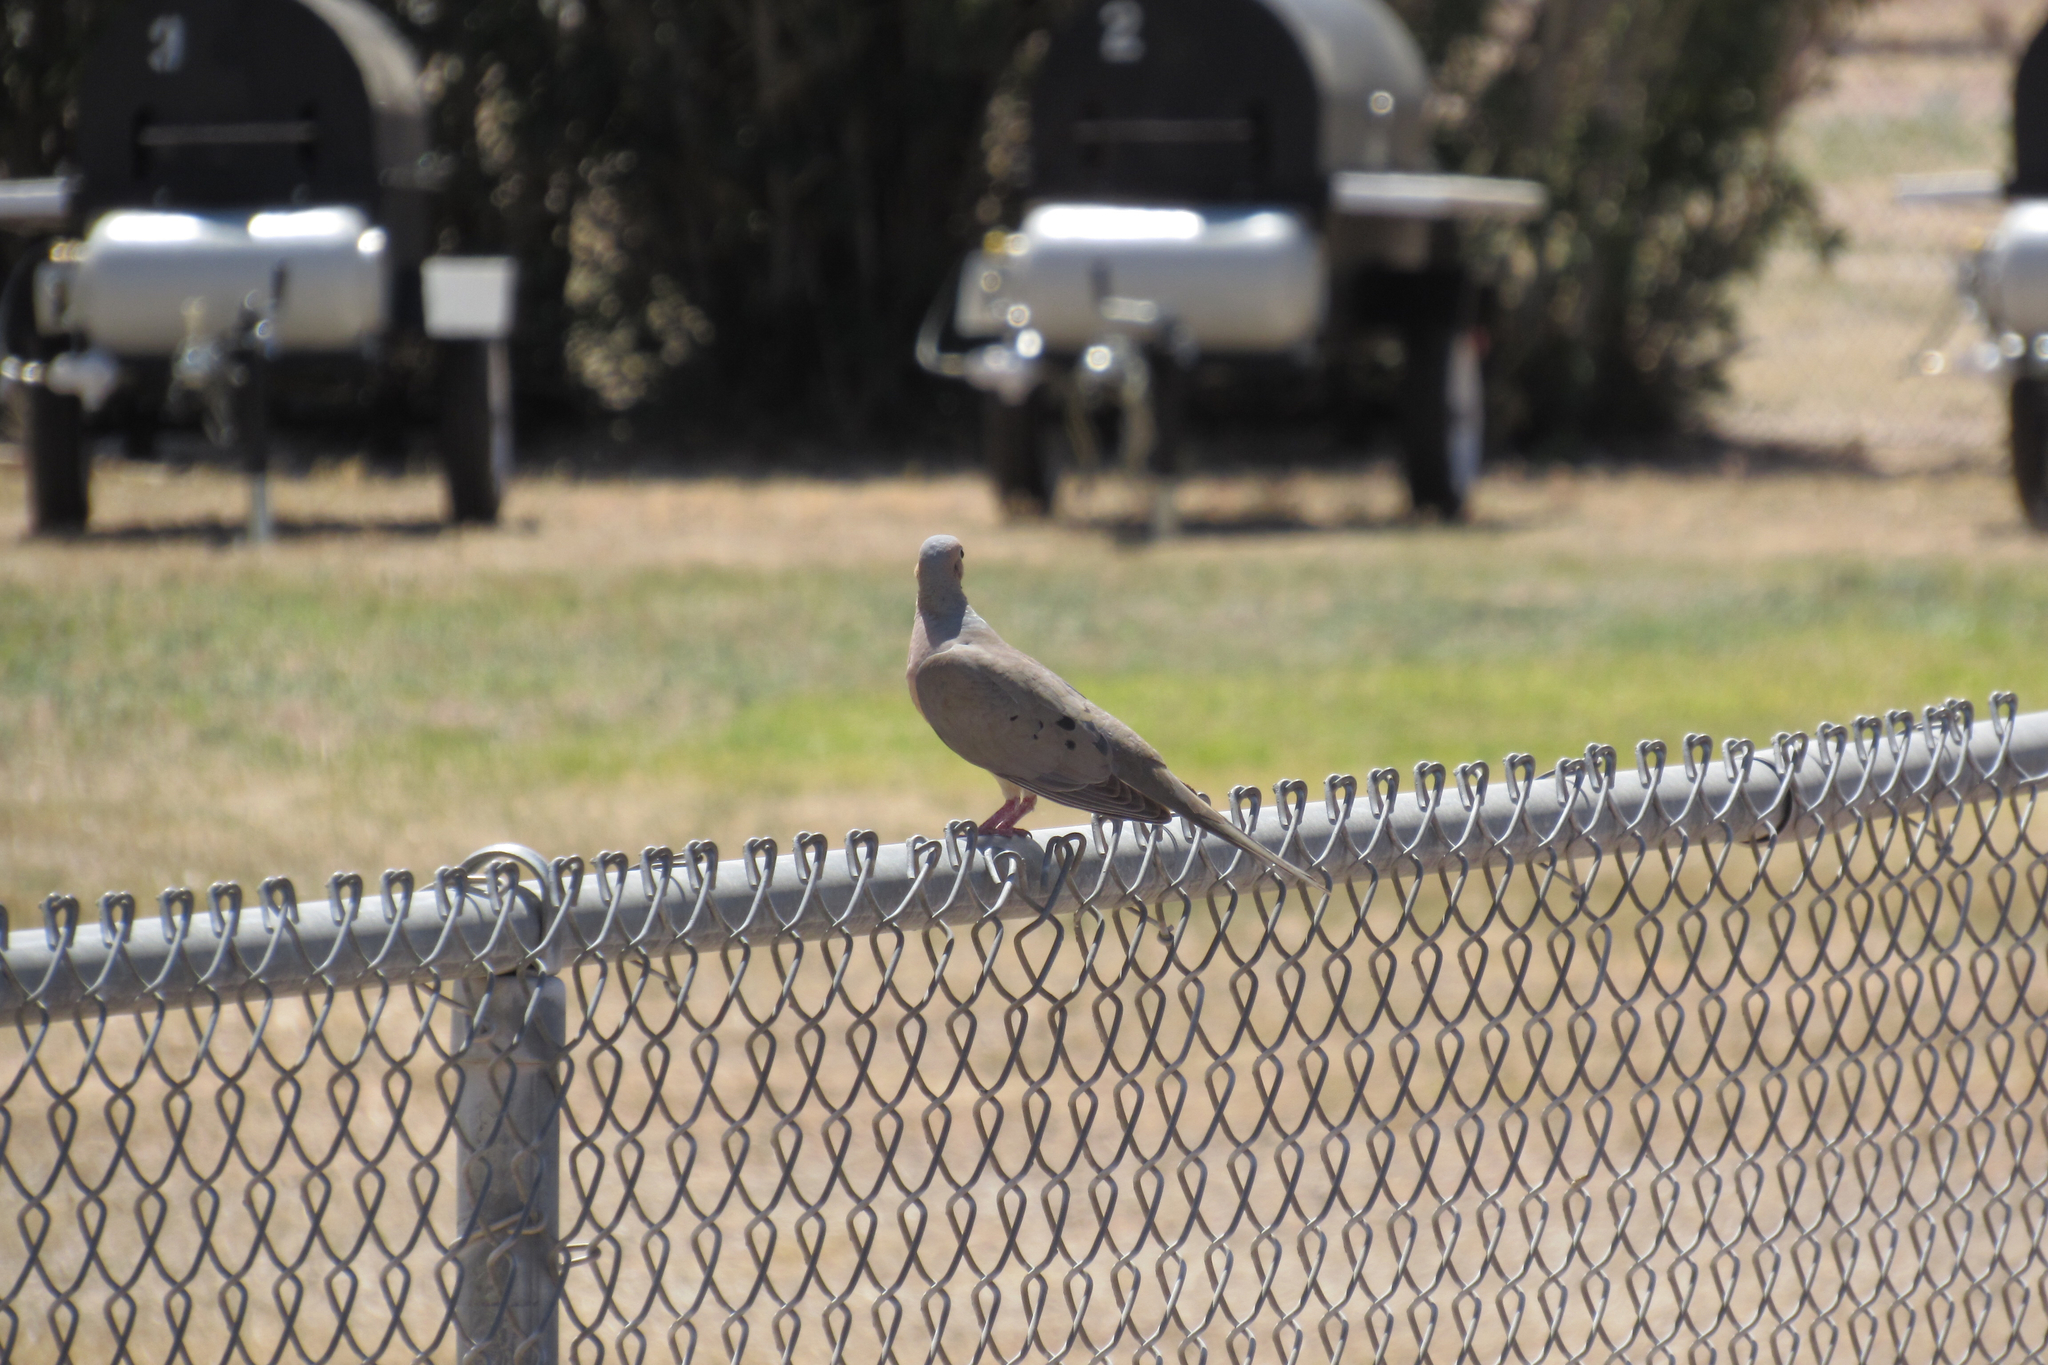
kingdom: Animalia
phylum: Chordata
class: Aves
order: Columbiformes
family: Columbidae
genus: Zenaida
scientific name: Zenaida macroura
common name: Mourning dove
